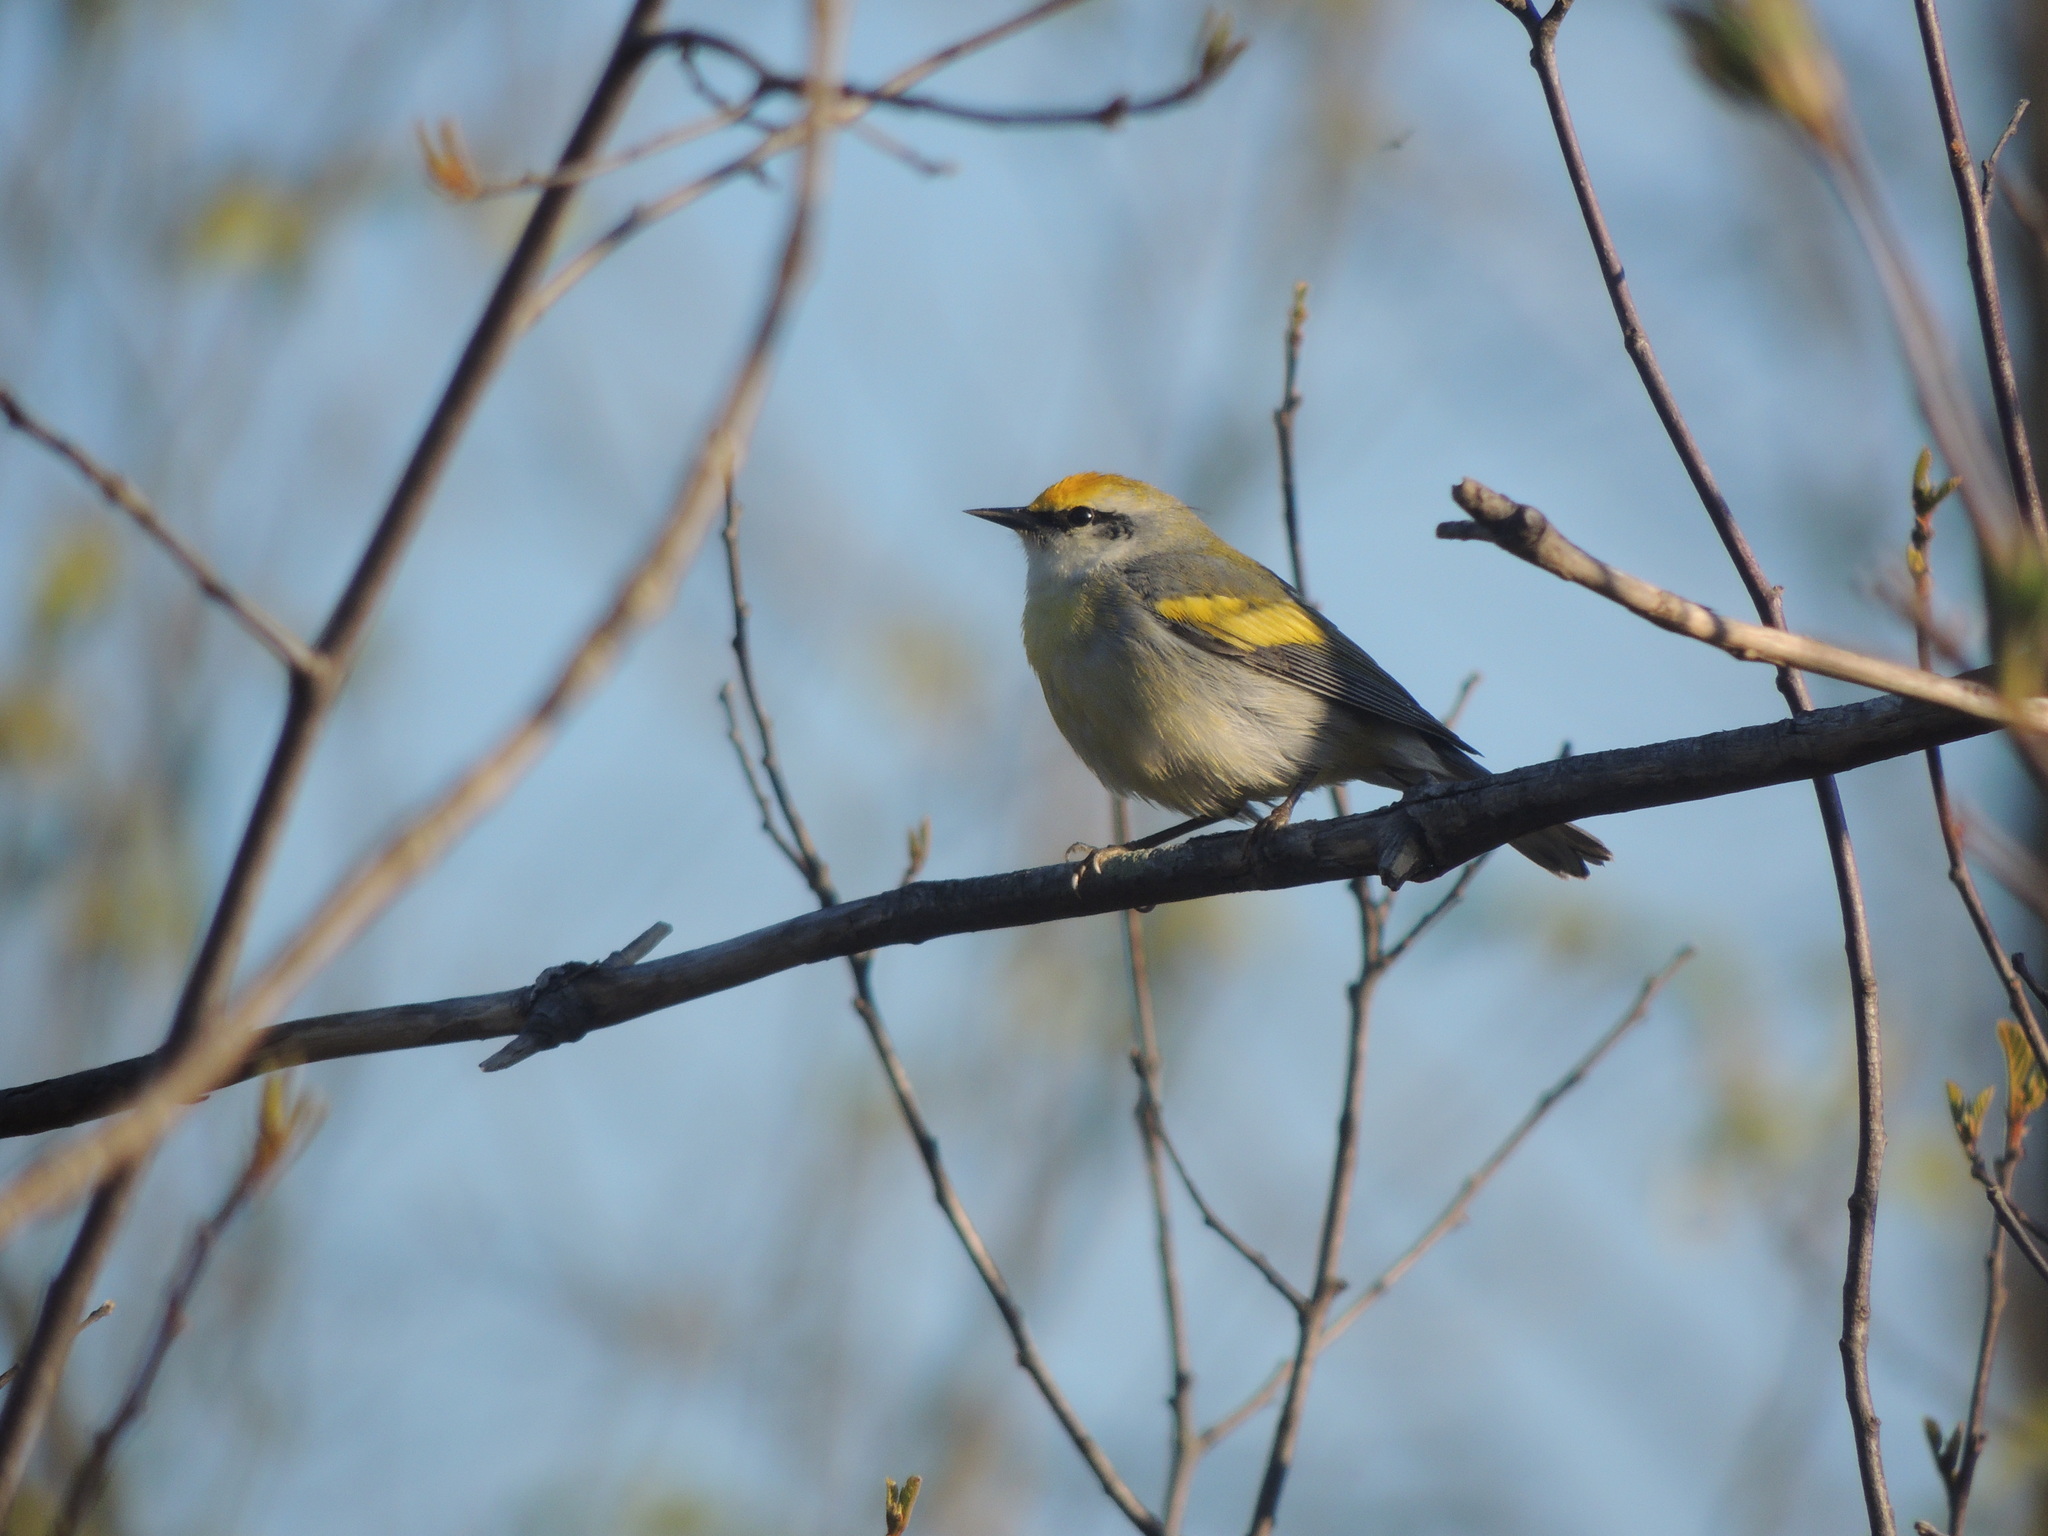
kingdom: Animalia
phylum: Chordata
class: Aves
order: Passeriformes
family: Parulidae
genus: Vermivora
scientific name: Vermivora
